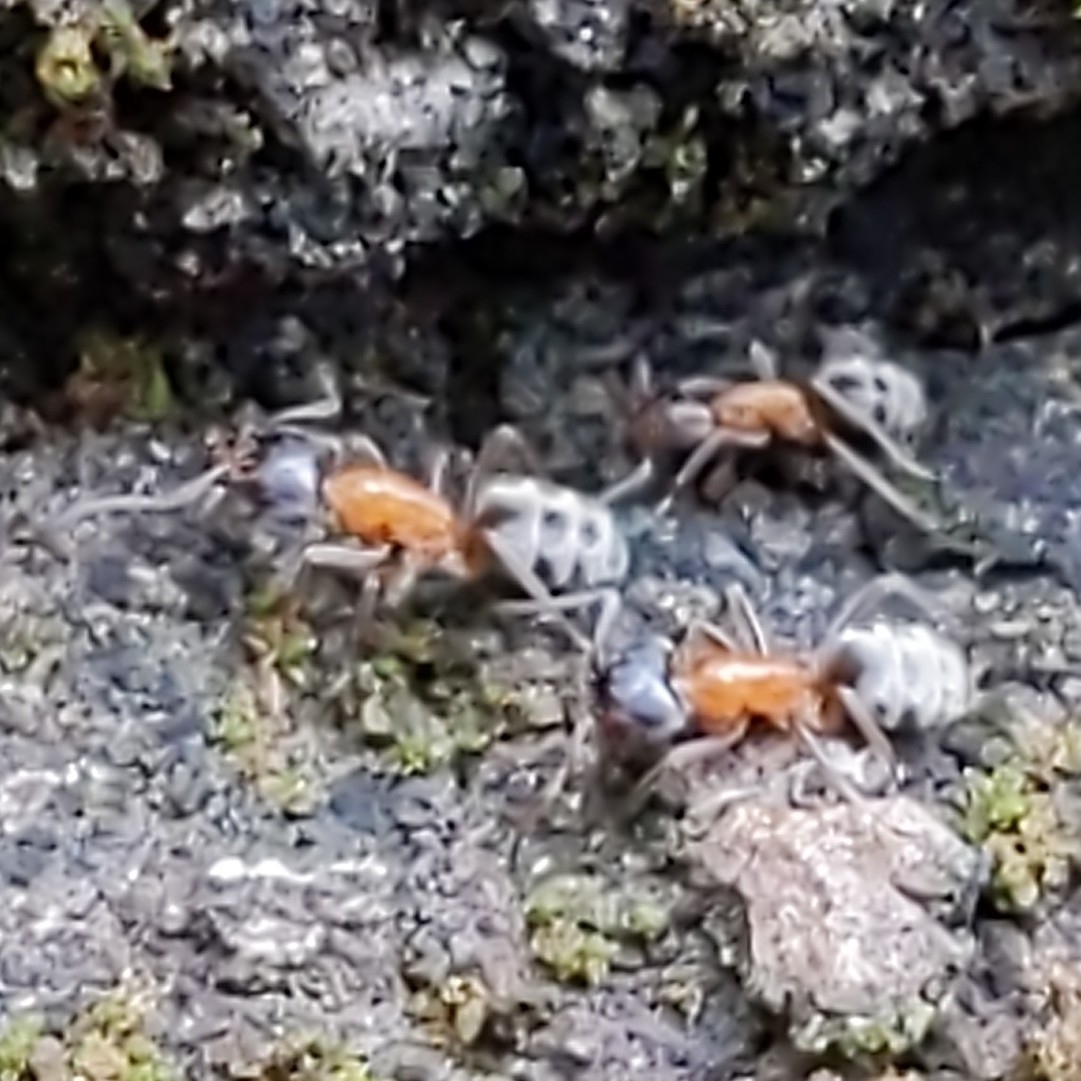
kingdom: Animalia
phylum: Arthropoda
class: Insecta
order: Hymenoptera
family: Formicidae
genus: Liometopum
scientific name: Liometopum occidentale
